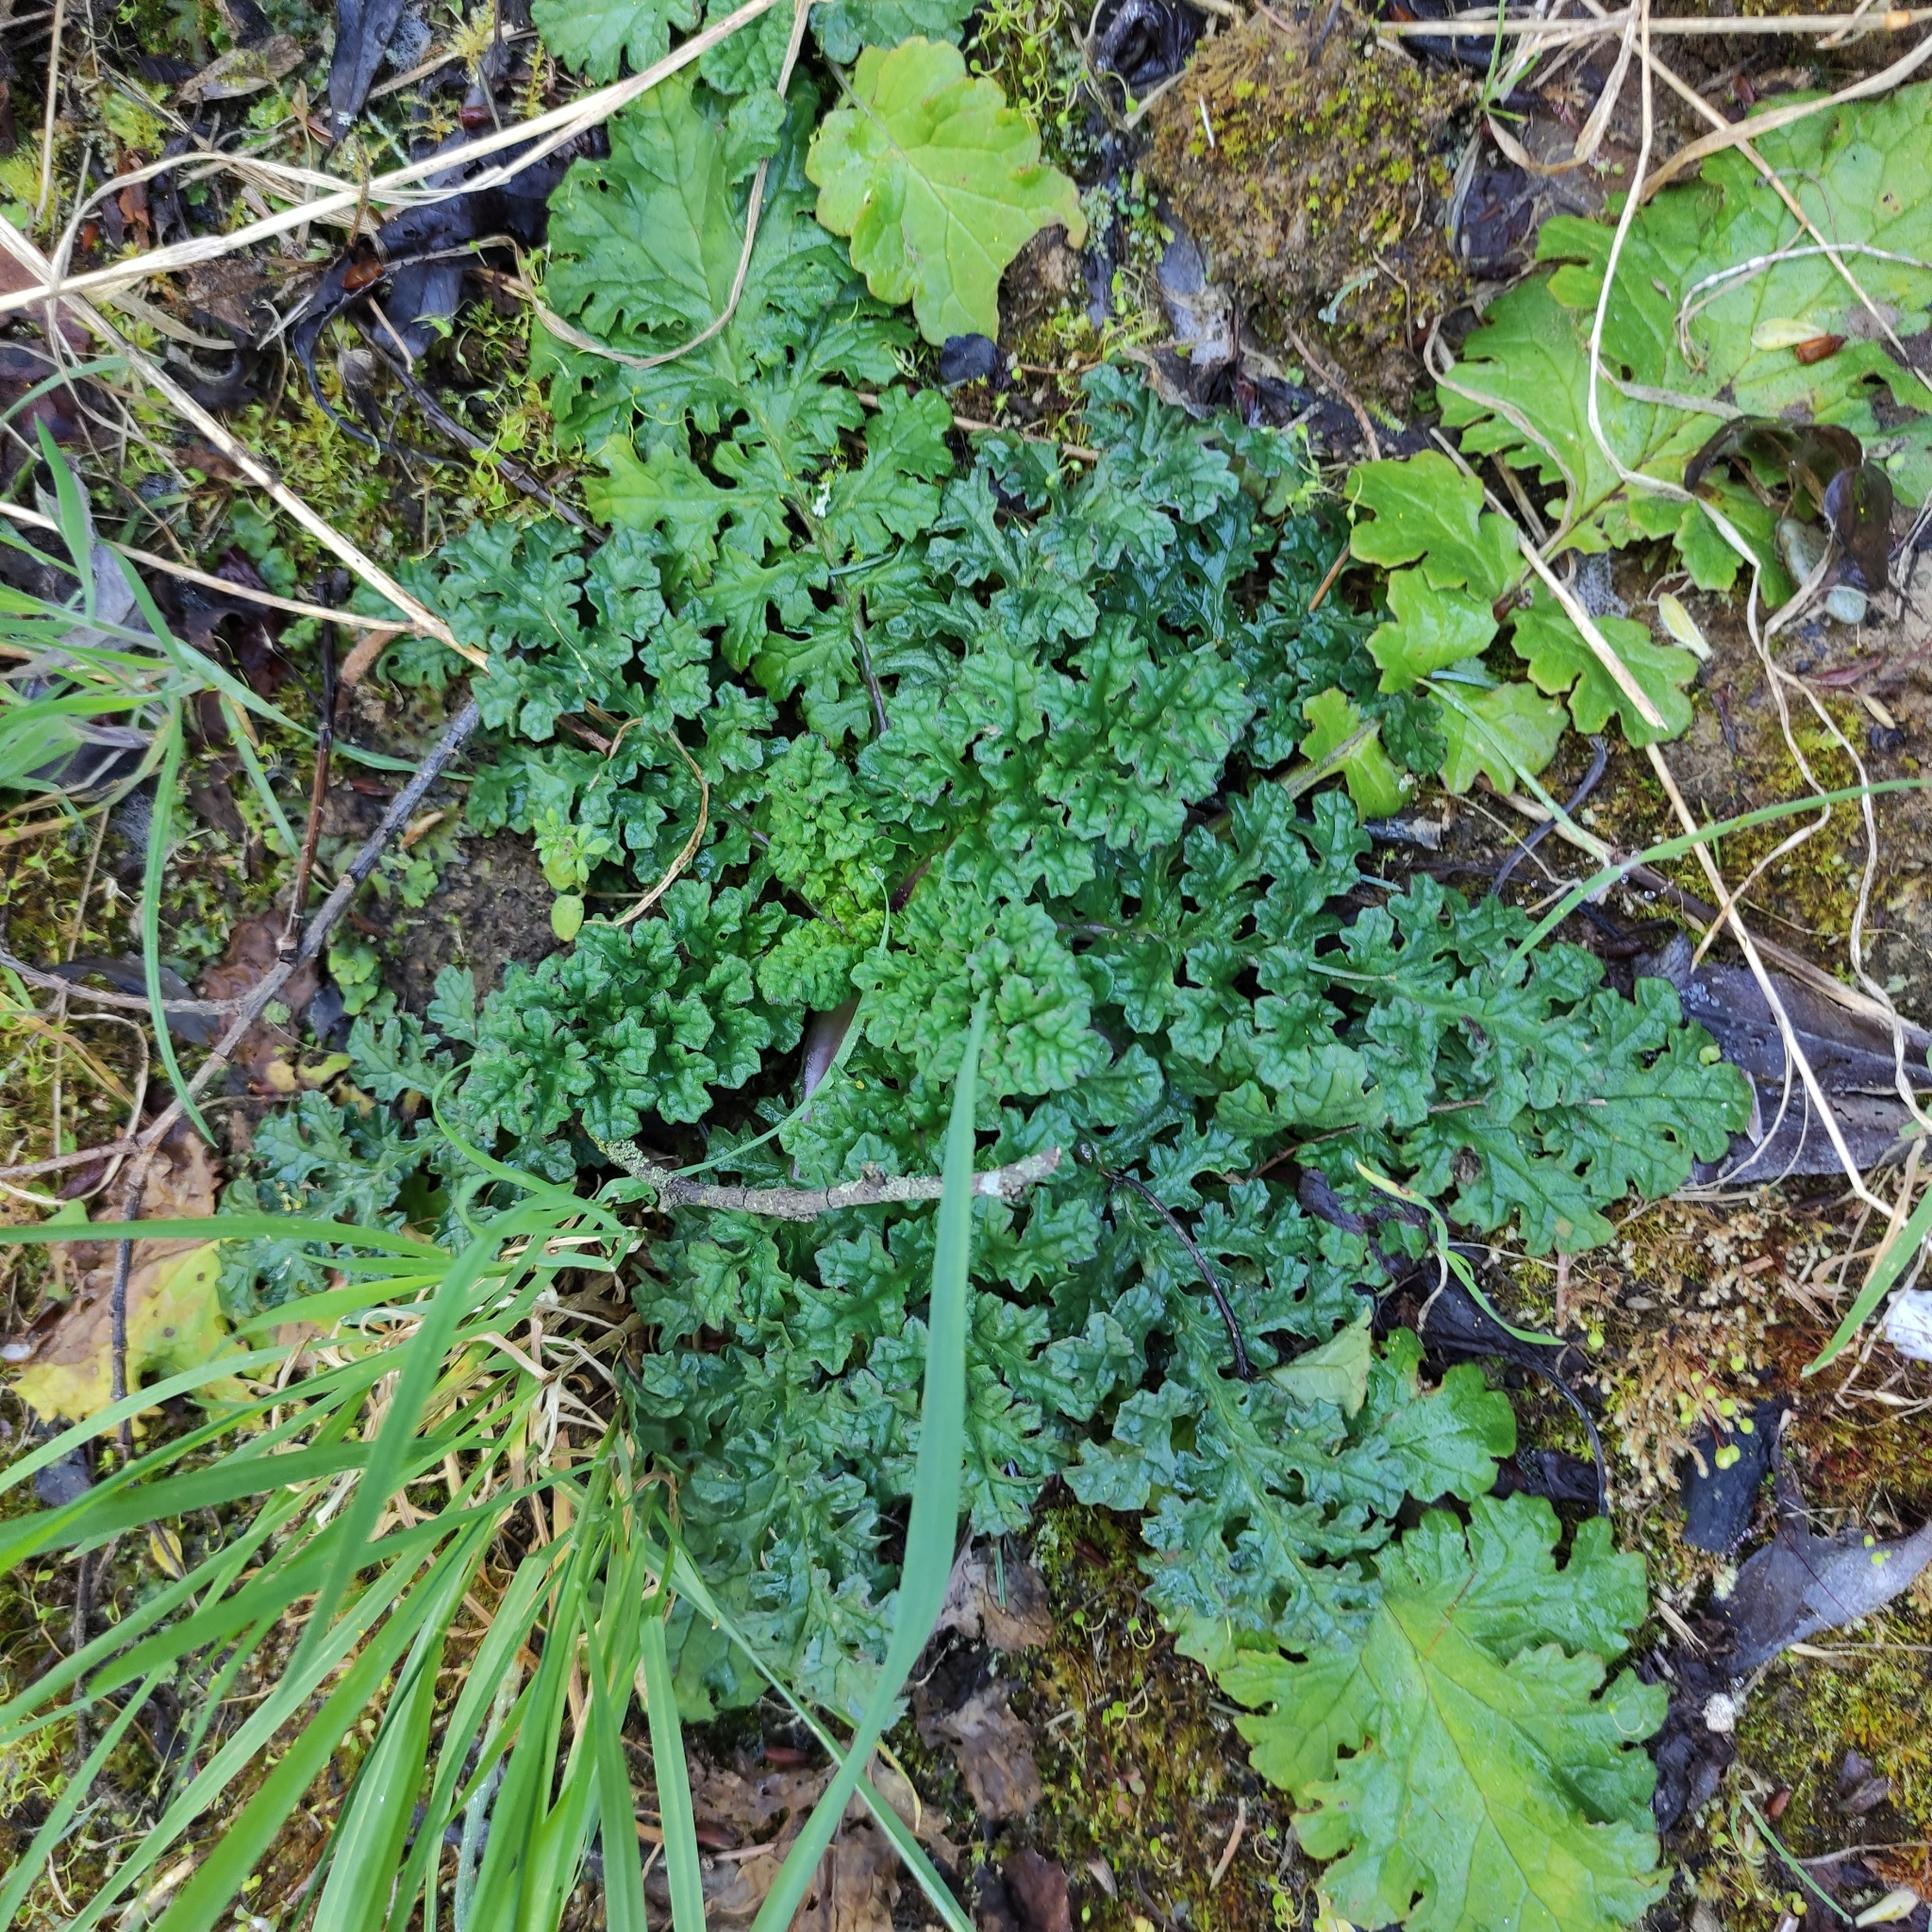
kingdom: Plantae
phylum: Tracheophyta
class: Magnoliopsida
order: Asterales
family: Asteraceae
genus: Jacobaea
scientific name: Jacobaea vulgaris
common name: Stinking willie
